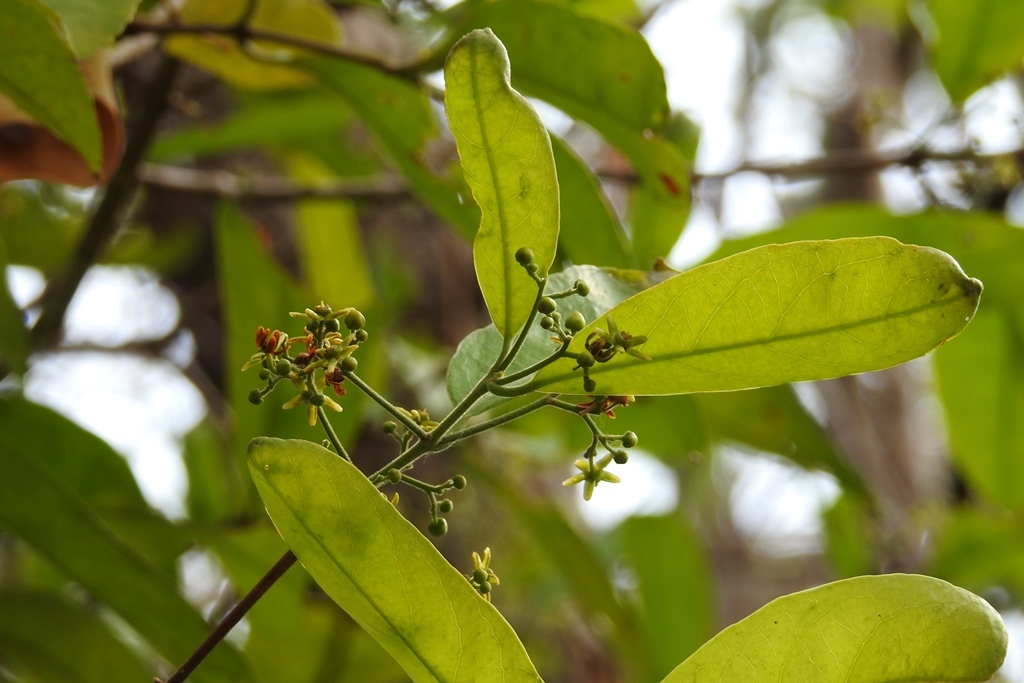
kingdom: Plantae
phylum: Tracheophyta
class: Magnoliopsida
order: Celastrales
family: Celastraceae
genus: Semialarium
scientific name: Semialarium mexicanum
